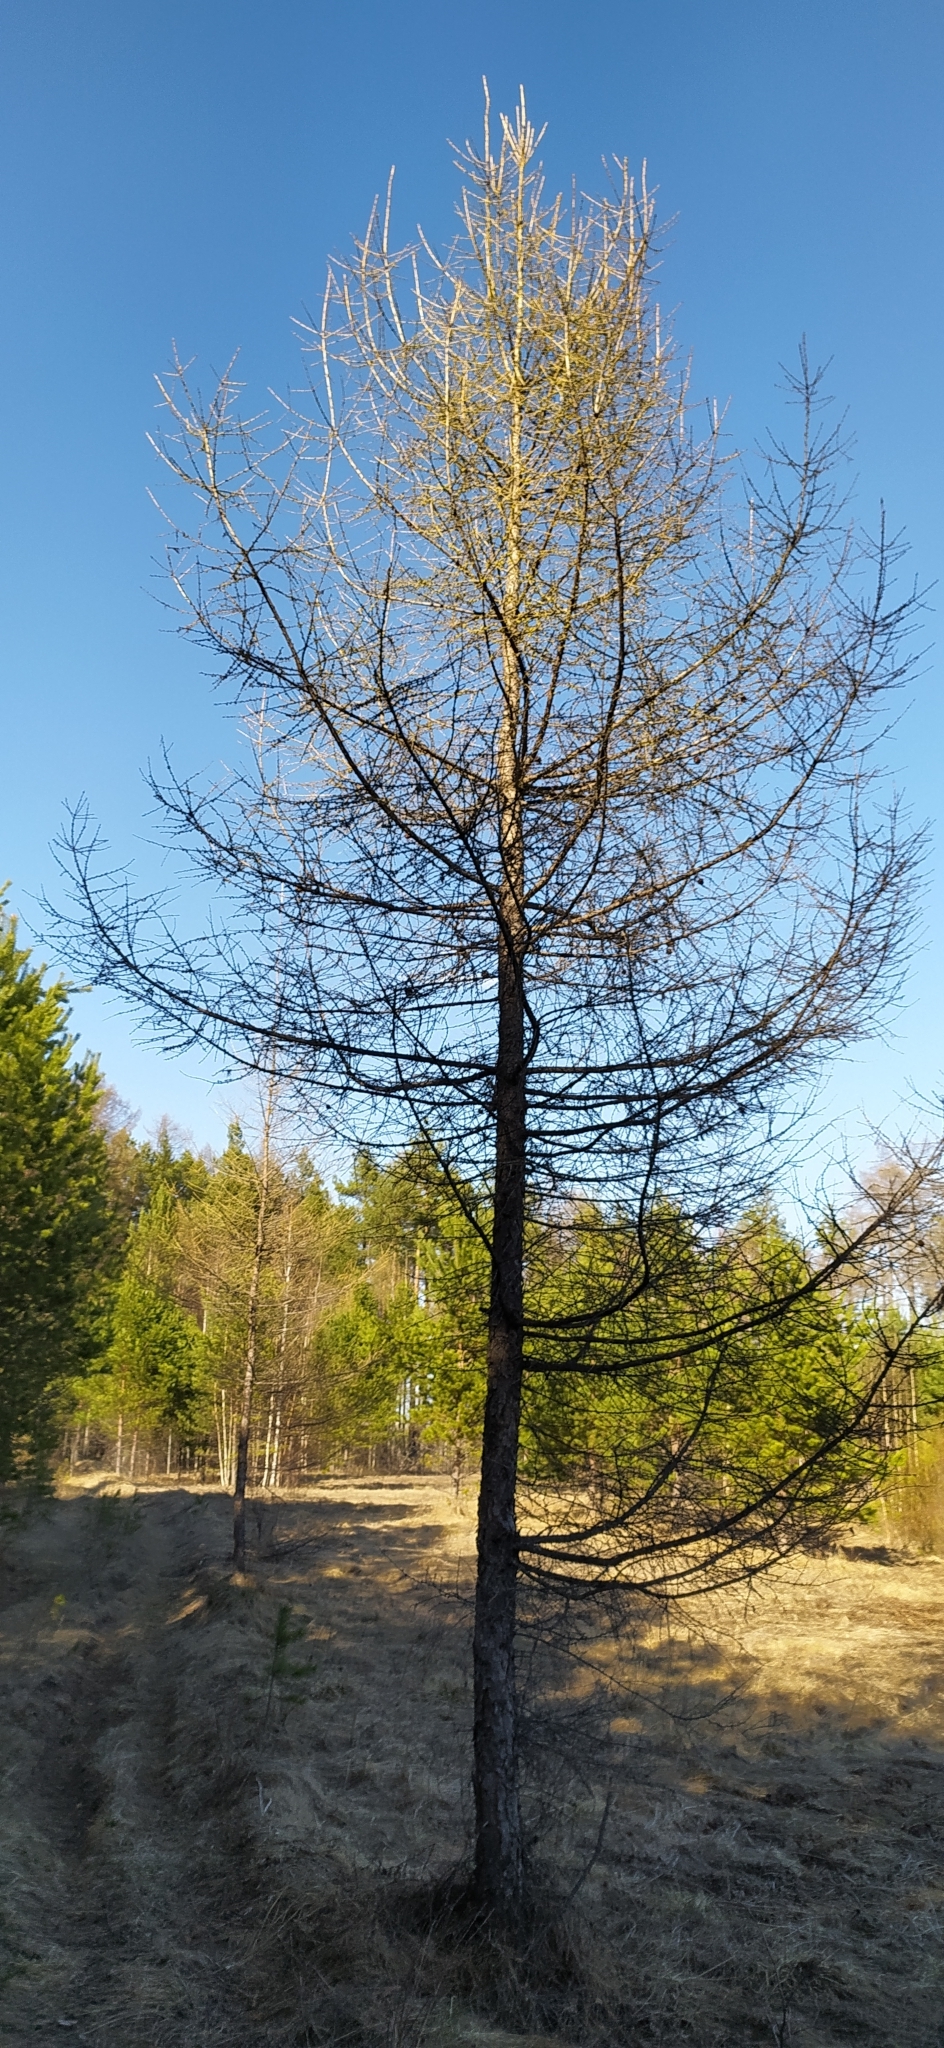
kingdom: Plantae
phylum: Tracheophyta
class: Pinopsida
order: Pinales
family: Pinaceae
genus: Larix
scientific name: Larix sibirica
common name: Siberian larch
